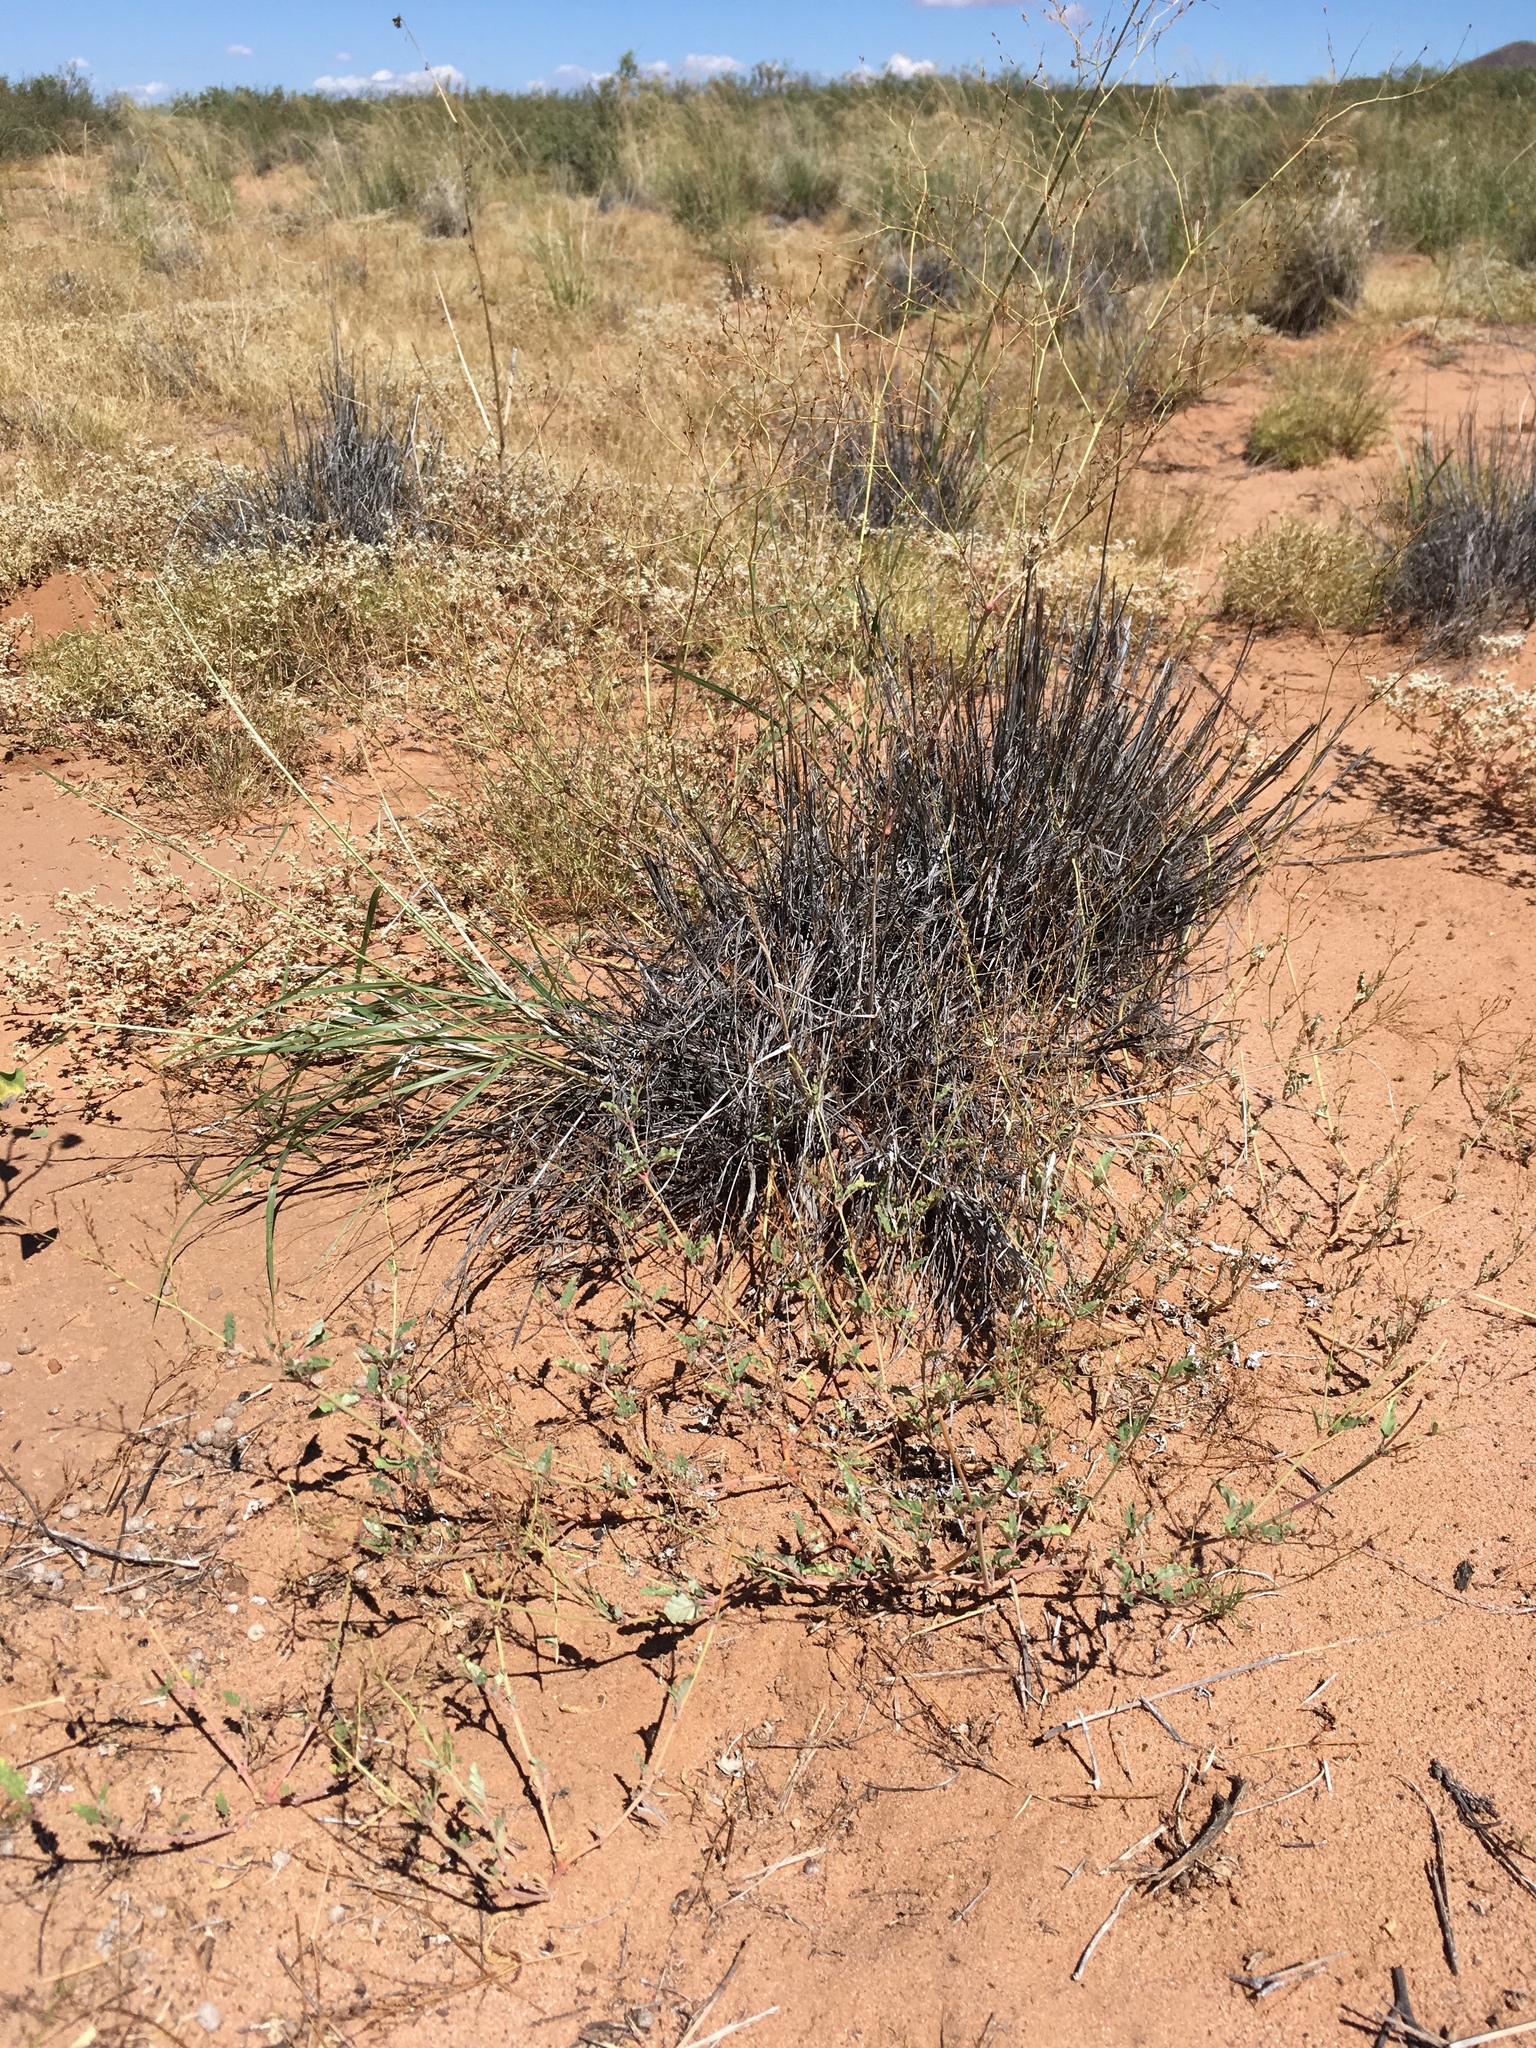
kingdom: Plantae
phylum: Tracheophyta
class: Magnoliopsida
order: Caryophyllales
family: Nyctaginaceae
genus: Boerhavia
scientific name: Boerhavia torreyana
